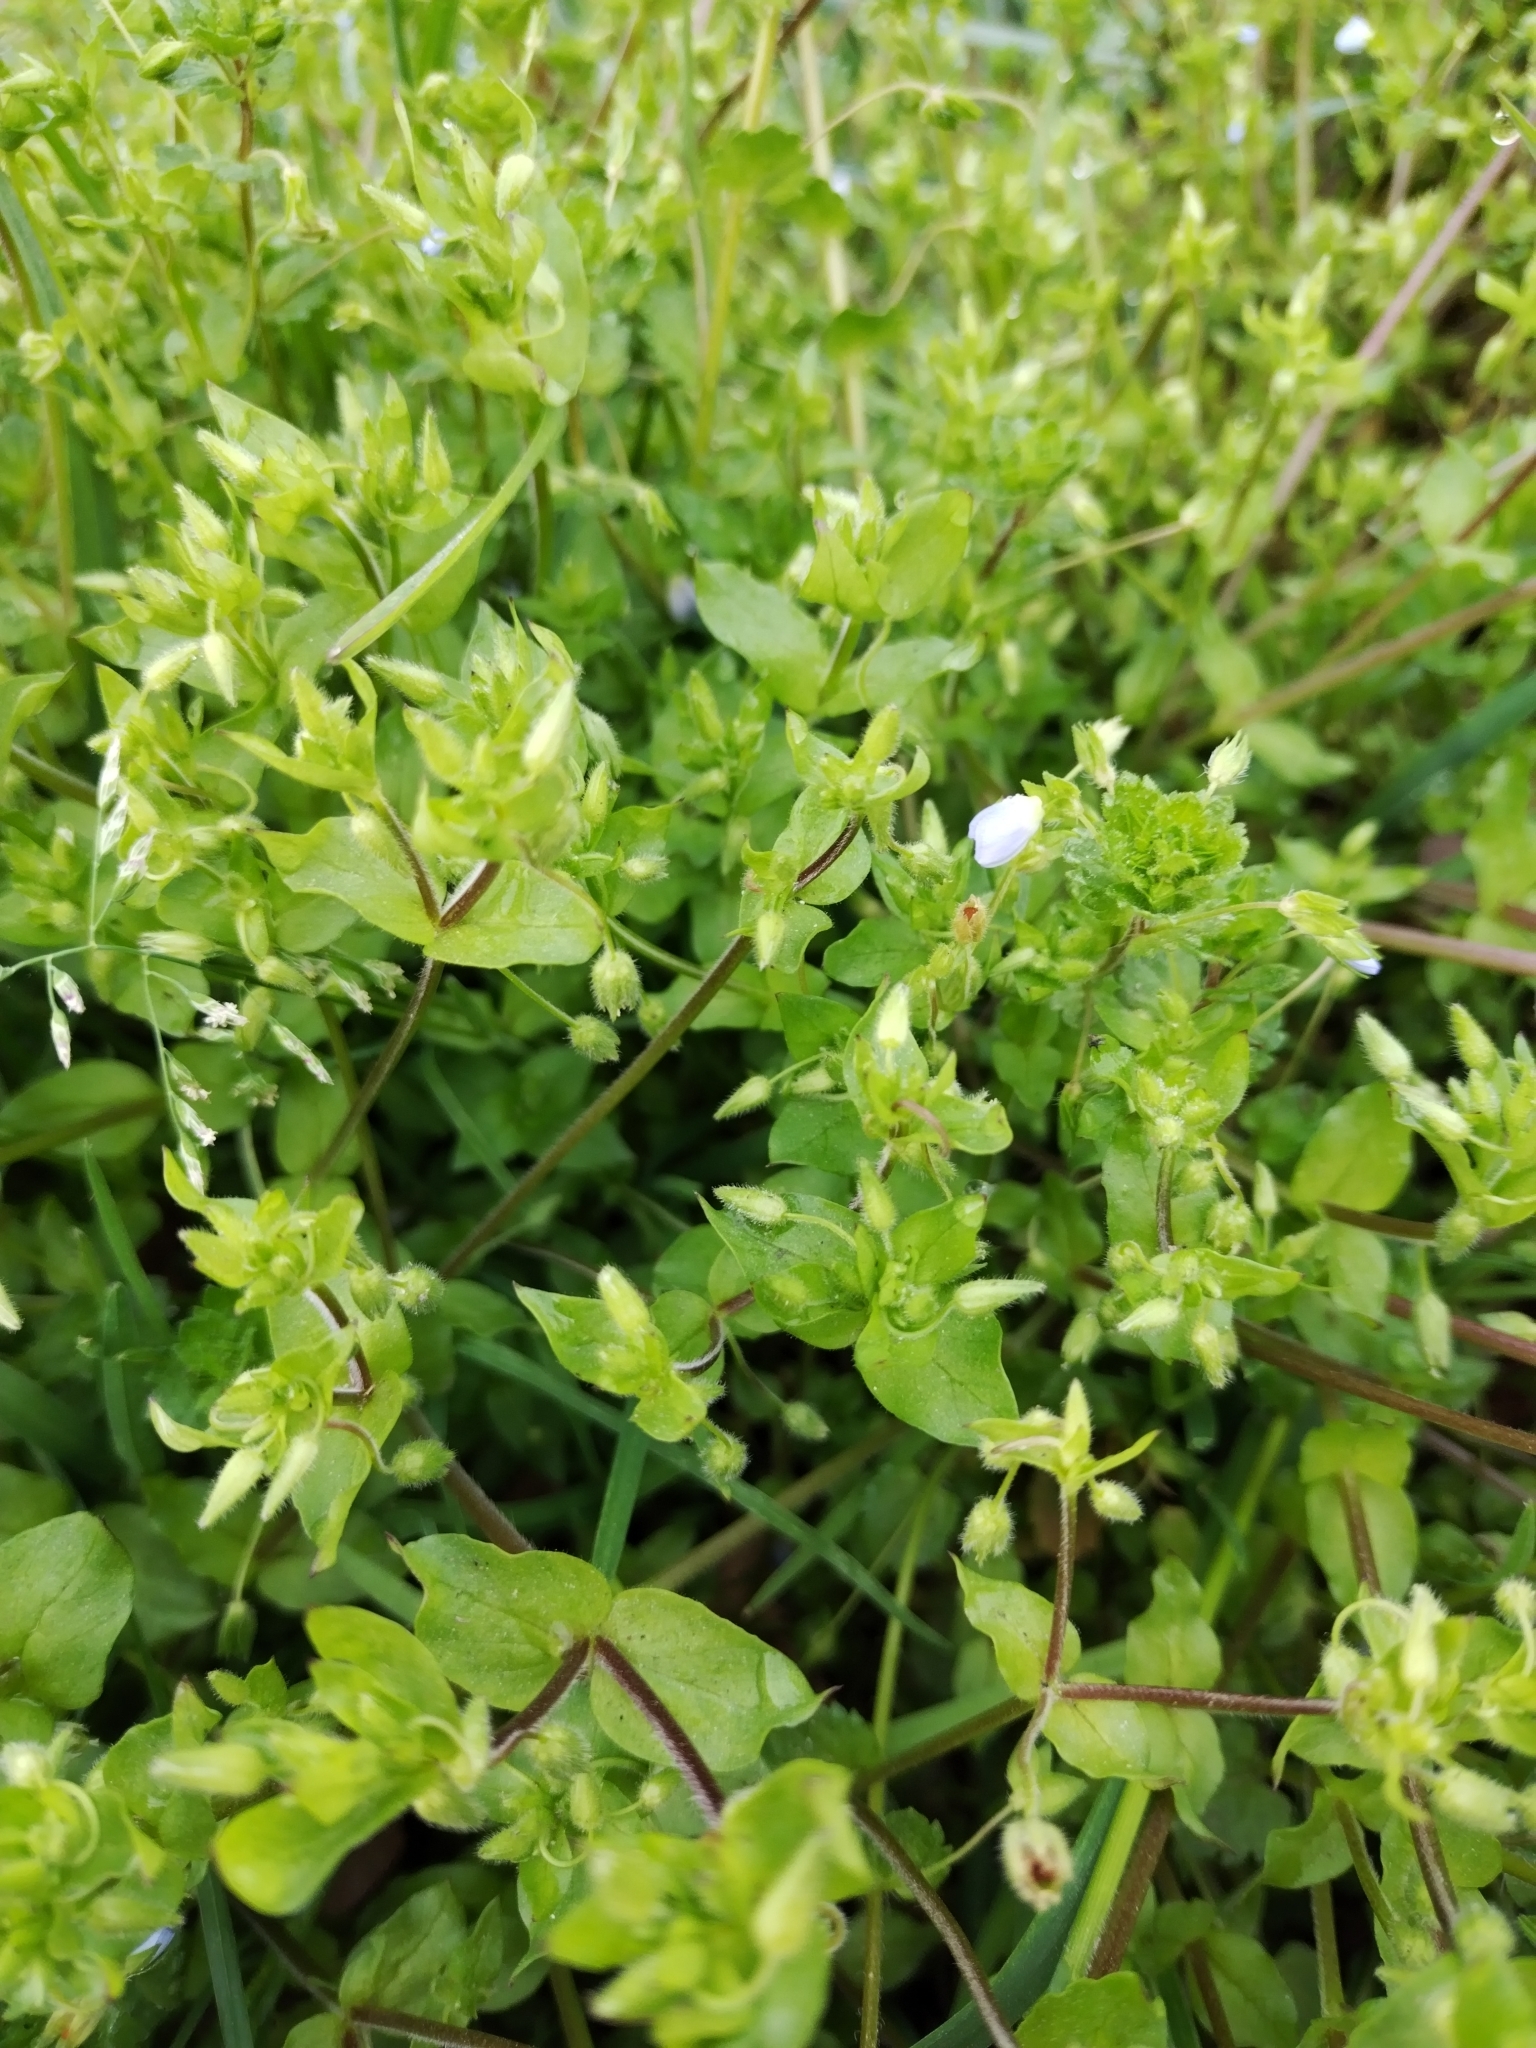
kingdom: Plantae
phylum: Tracheophyta
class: Magnoliopsida
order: Lamiales
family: Plantaginaceae
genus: Veronica
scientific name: Veronica persica
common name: Common field-speedwell
